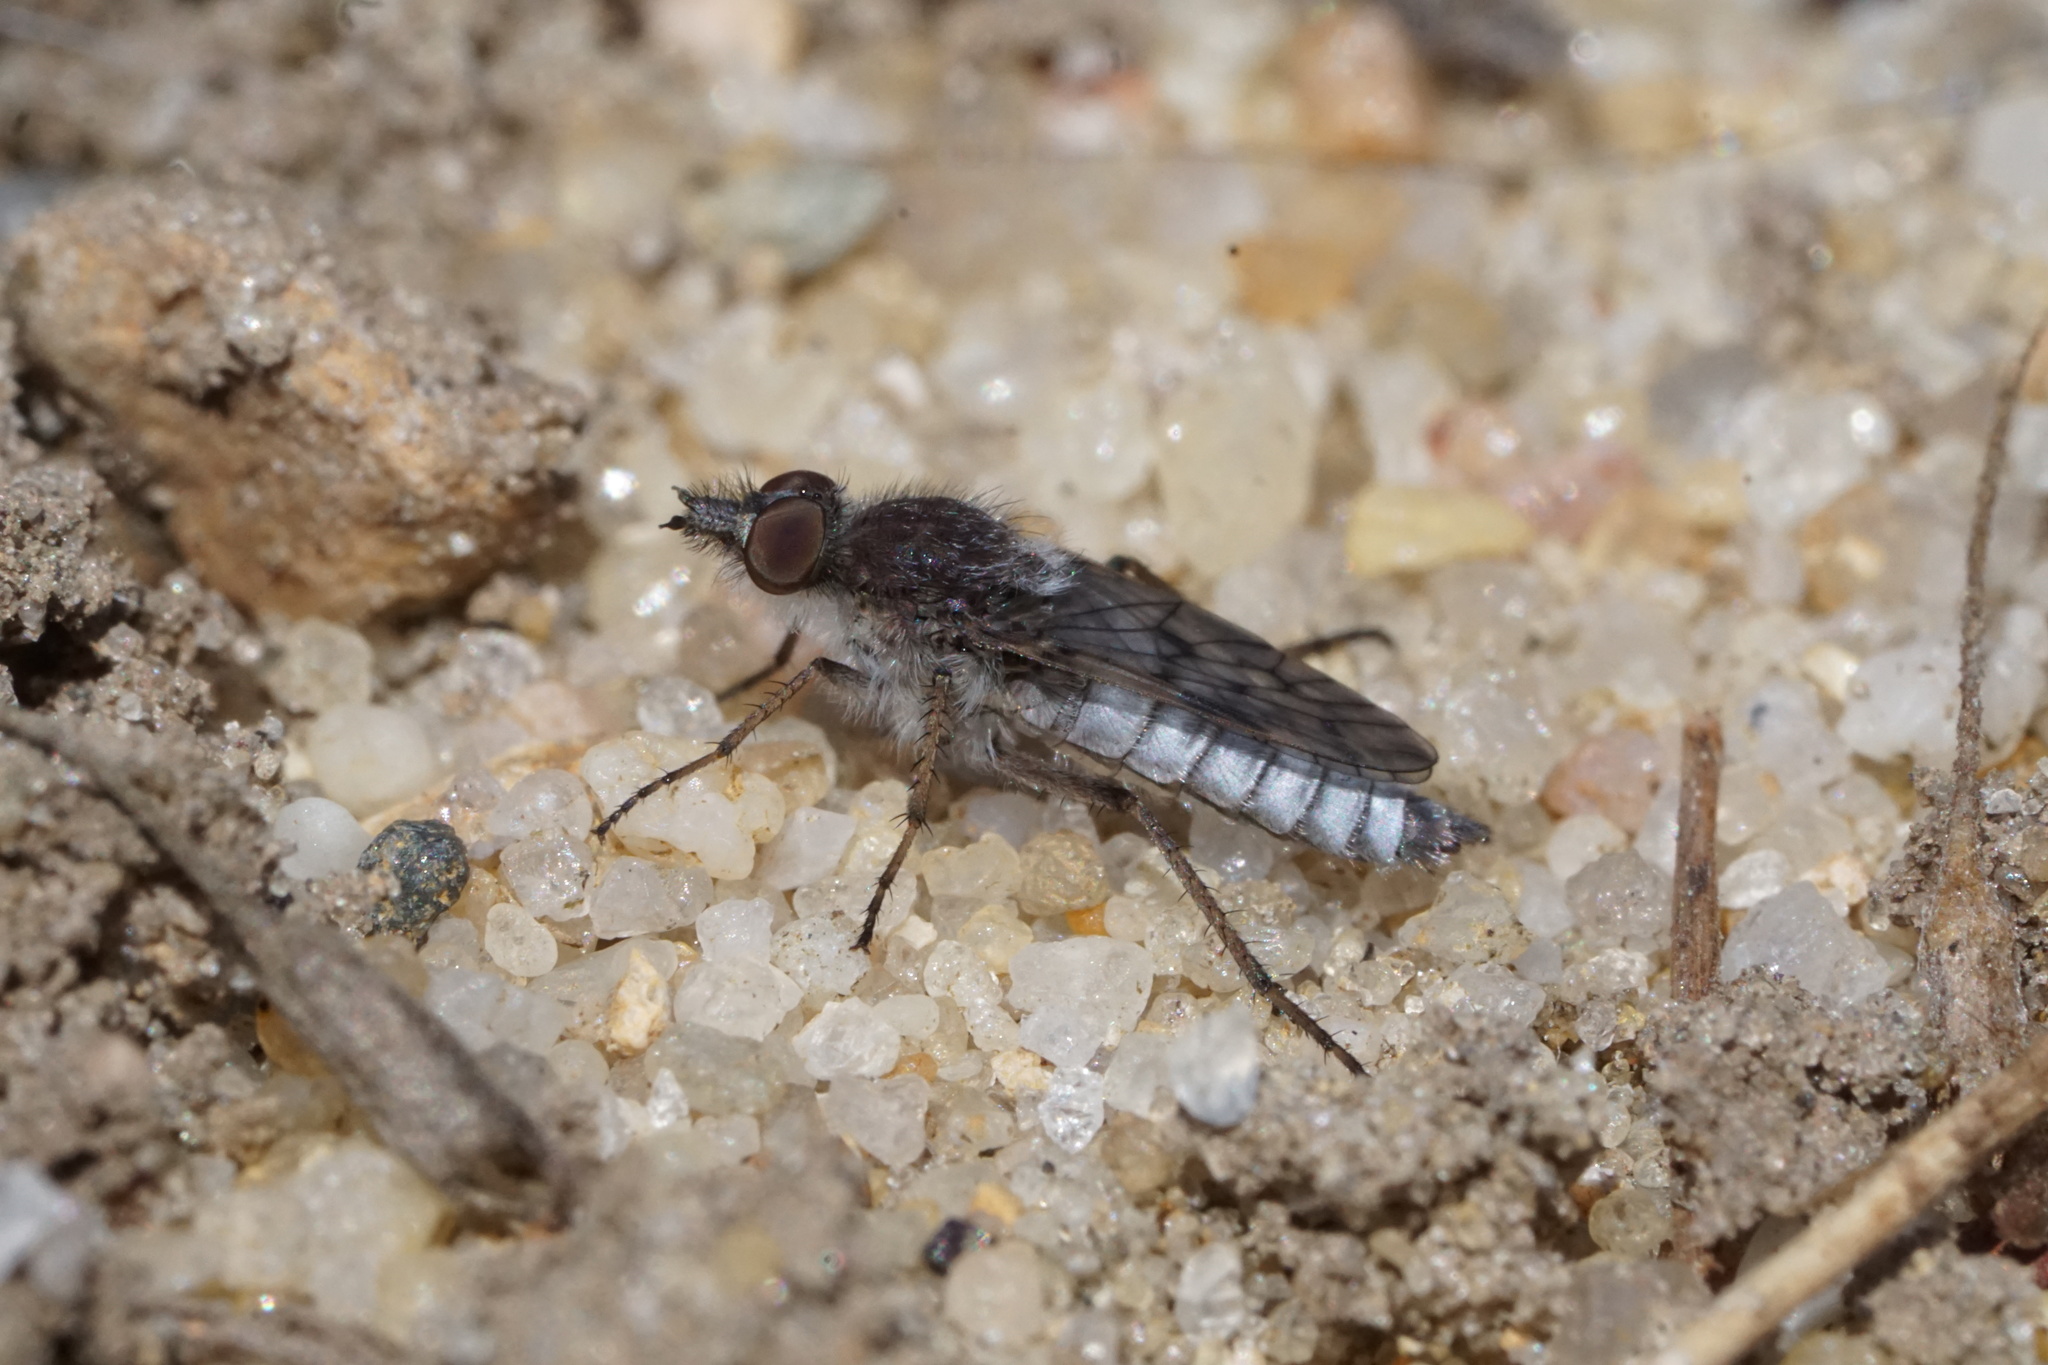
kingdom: Animalia
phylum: Arthropoda
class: Insecta
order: Diptera
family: Therevidae
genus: Tabuda
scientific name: Tabuda varia
